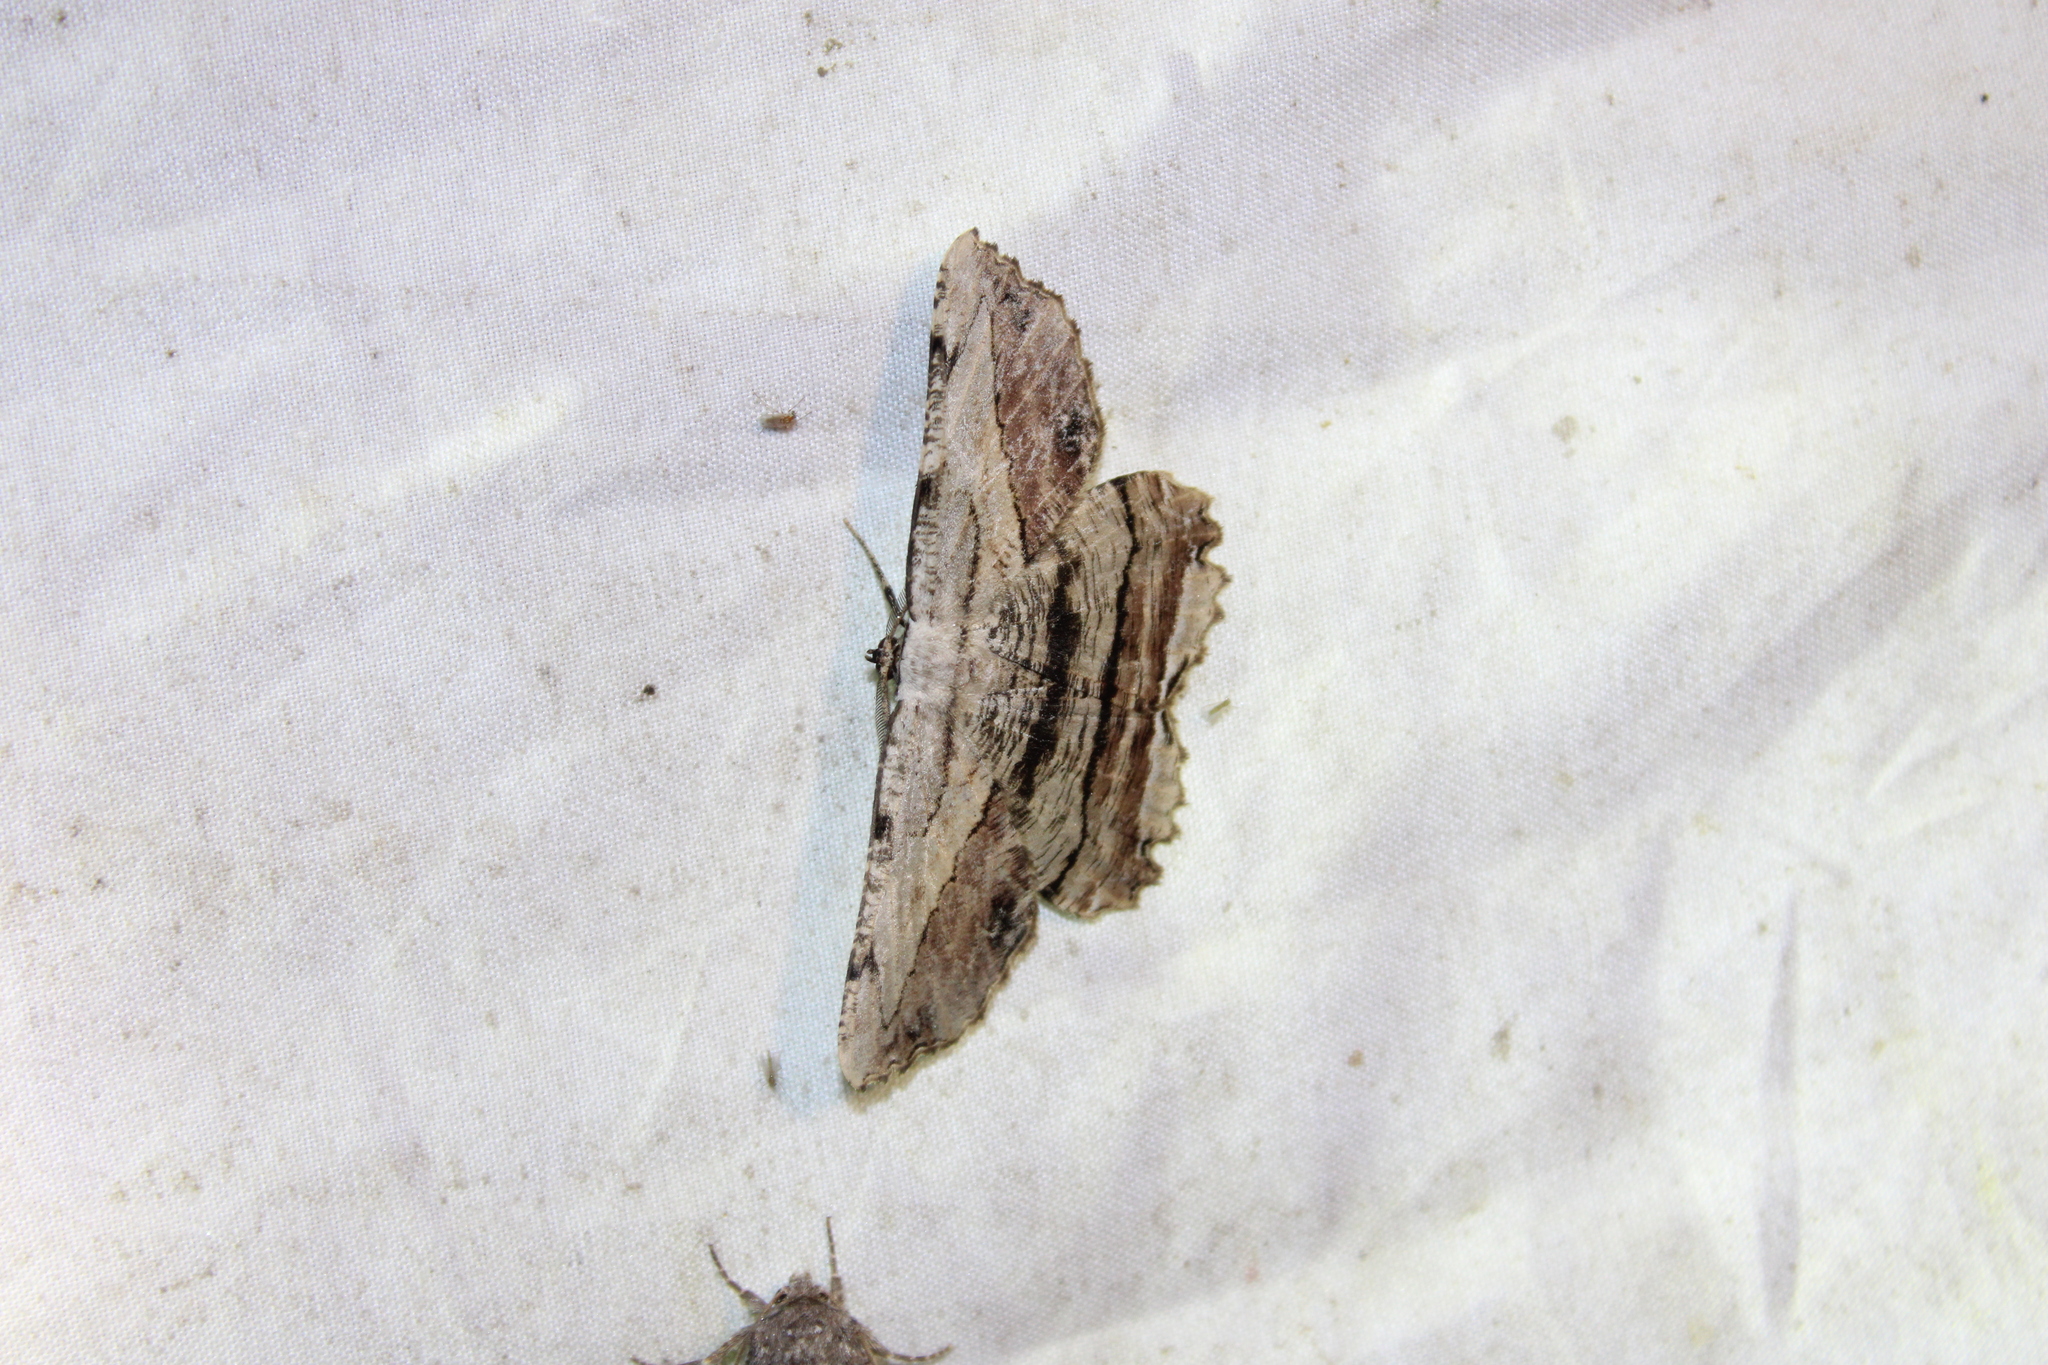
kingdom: Animalia
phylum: Arthropoda
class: Insecta
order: Lepidoptera
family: Geometridae
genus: Lytrosis
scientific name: Lytrosis unitaria
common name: Common lytrosis
